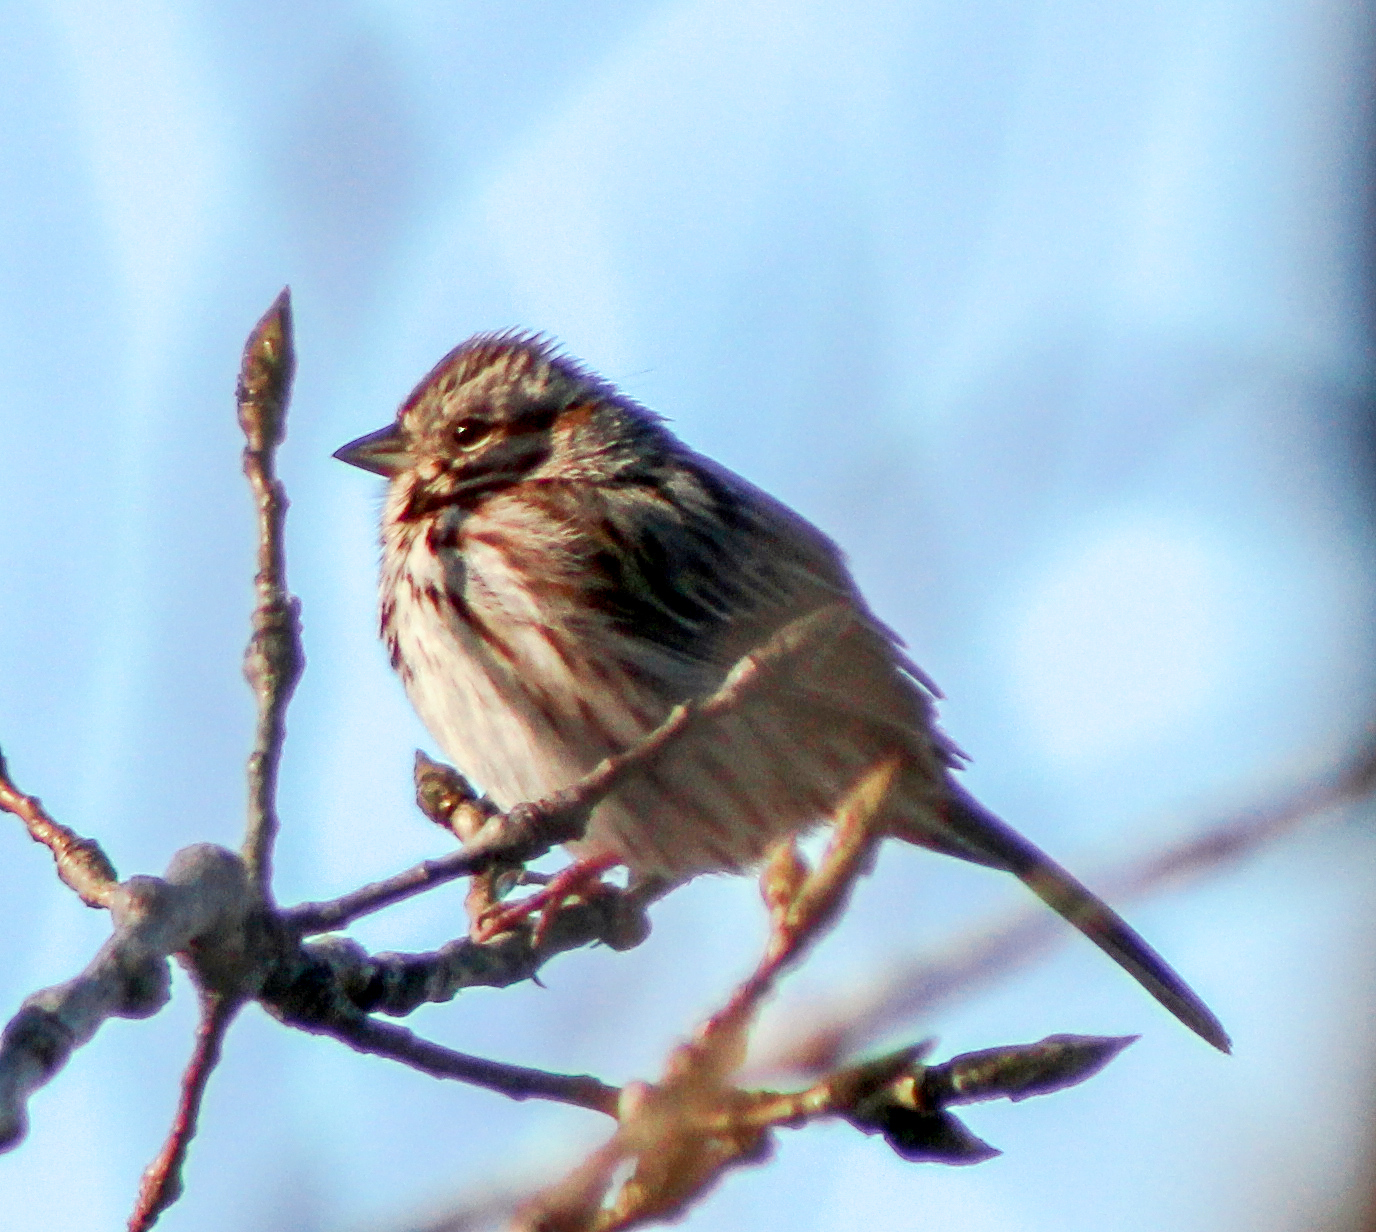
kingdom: Animalia
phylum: Chordata
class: Aves
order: Passeriformes
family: Passerellidae
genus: Melospiza
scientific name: Melospiza melodia
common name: Song sparrow
